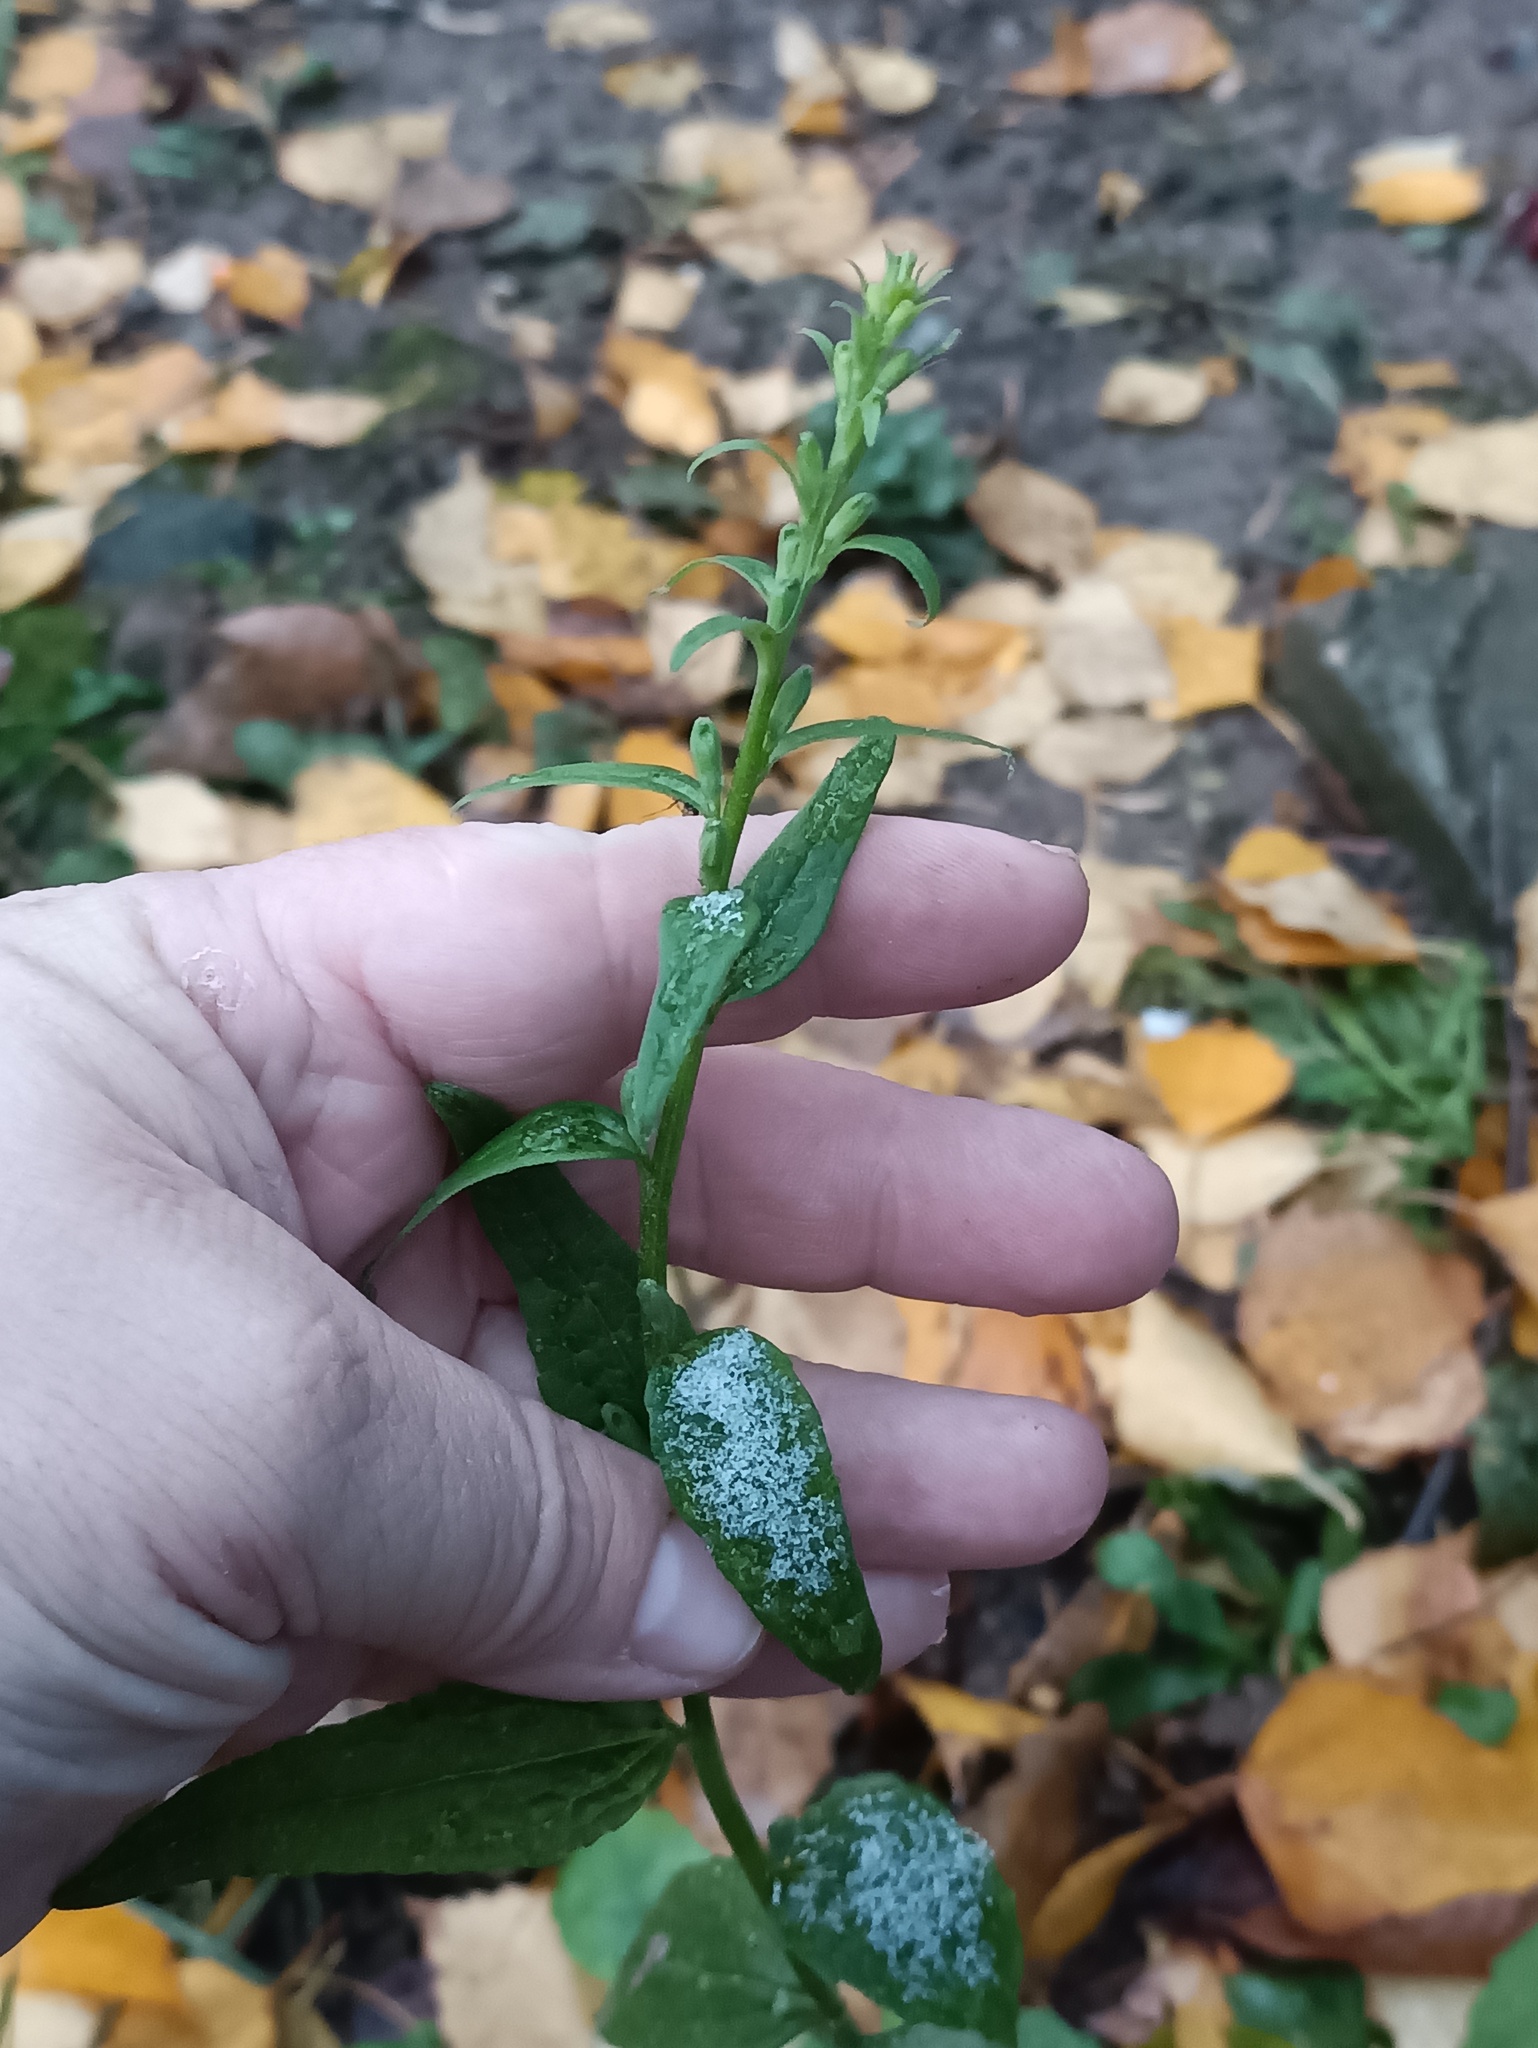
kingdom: Plantae
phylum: Tracheophyta
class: Magnoliopsida
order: Asterales
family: Campanulaceae
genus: Campanula
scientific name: Campanula rapunculoides
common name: Creeping bellflower
